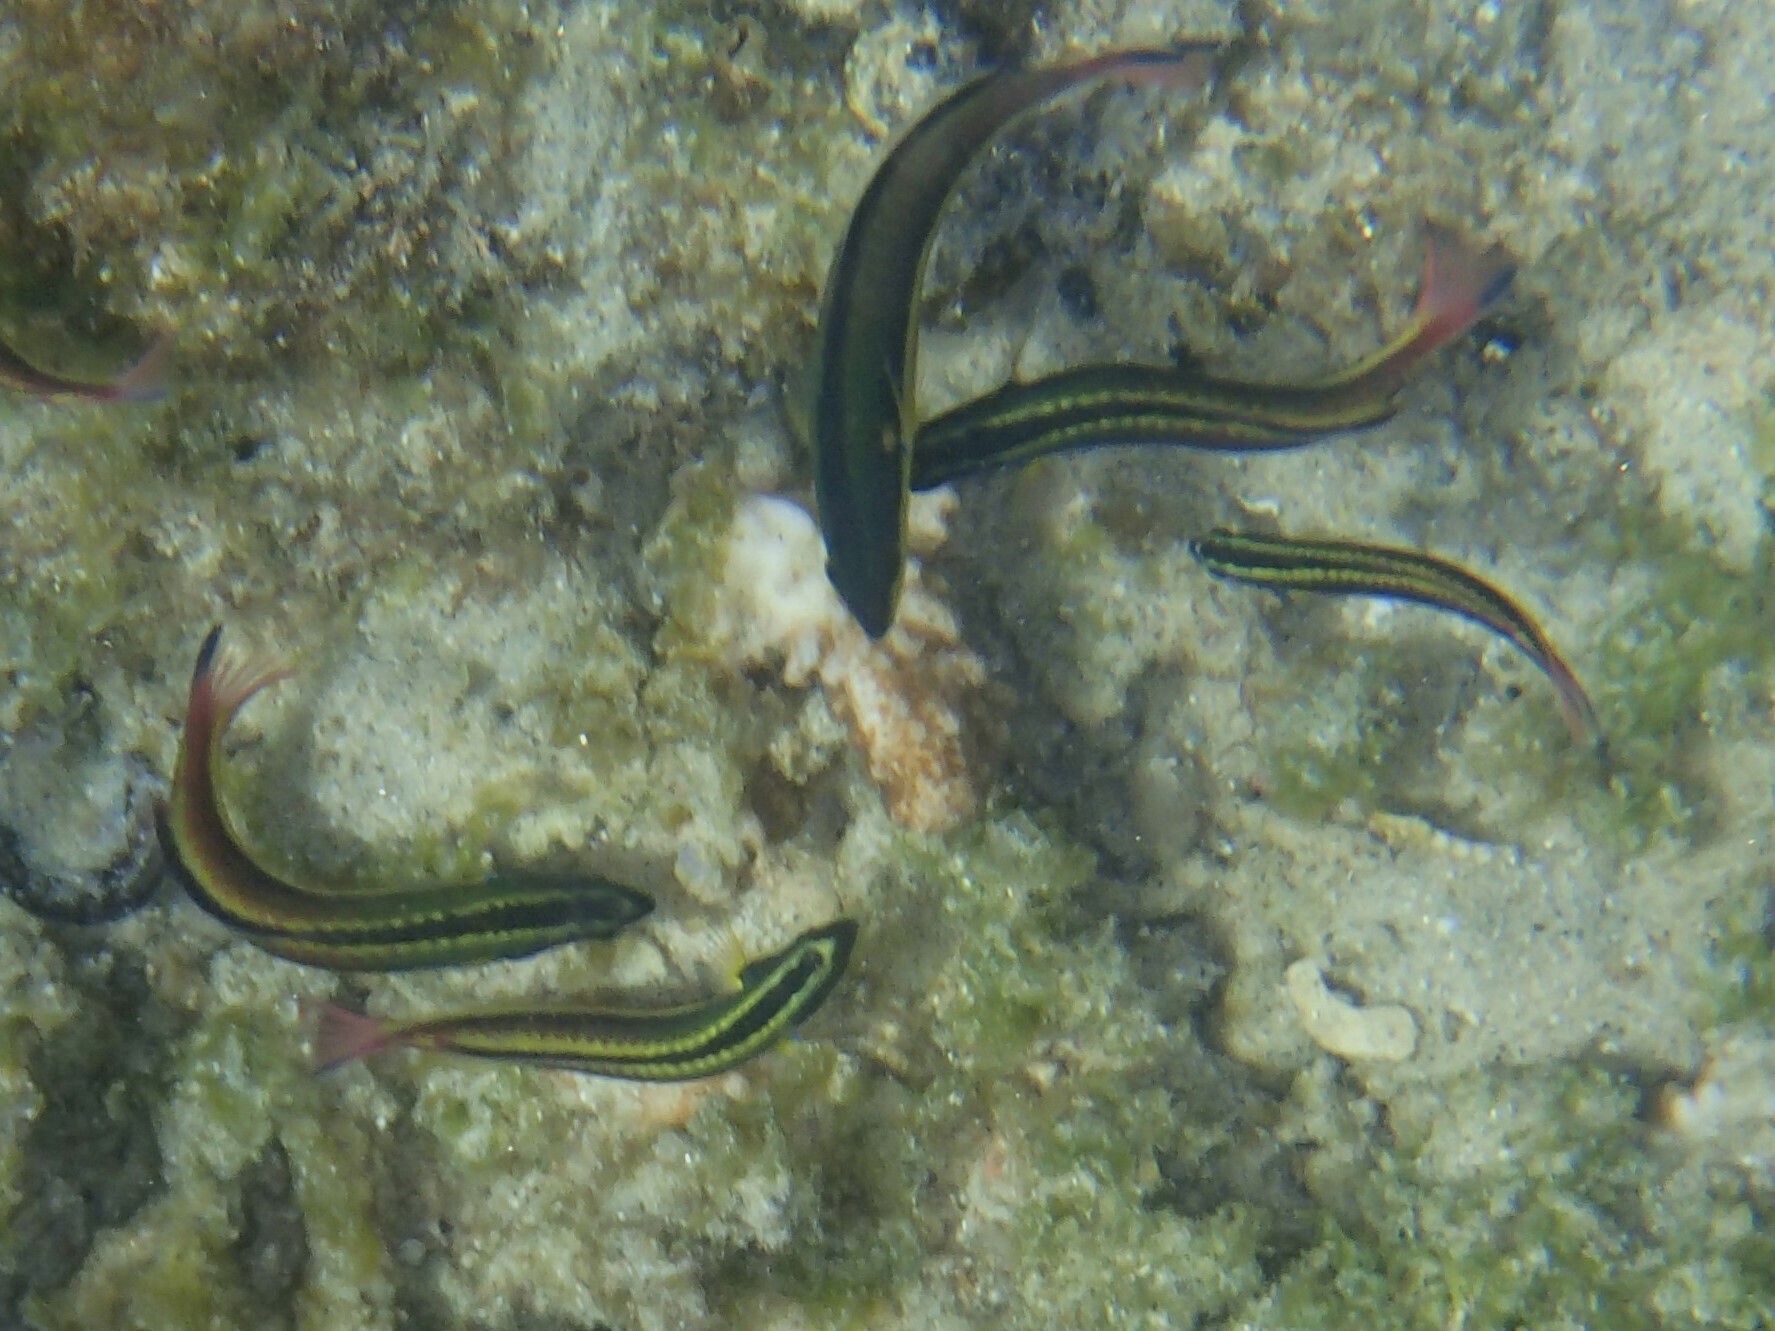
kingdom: Animalia
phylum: Chordata
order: Perciformes
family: Labridae
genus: Thalassoma
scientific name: Thalassoma lucasanum
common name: Cortez rainbow wrasse
